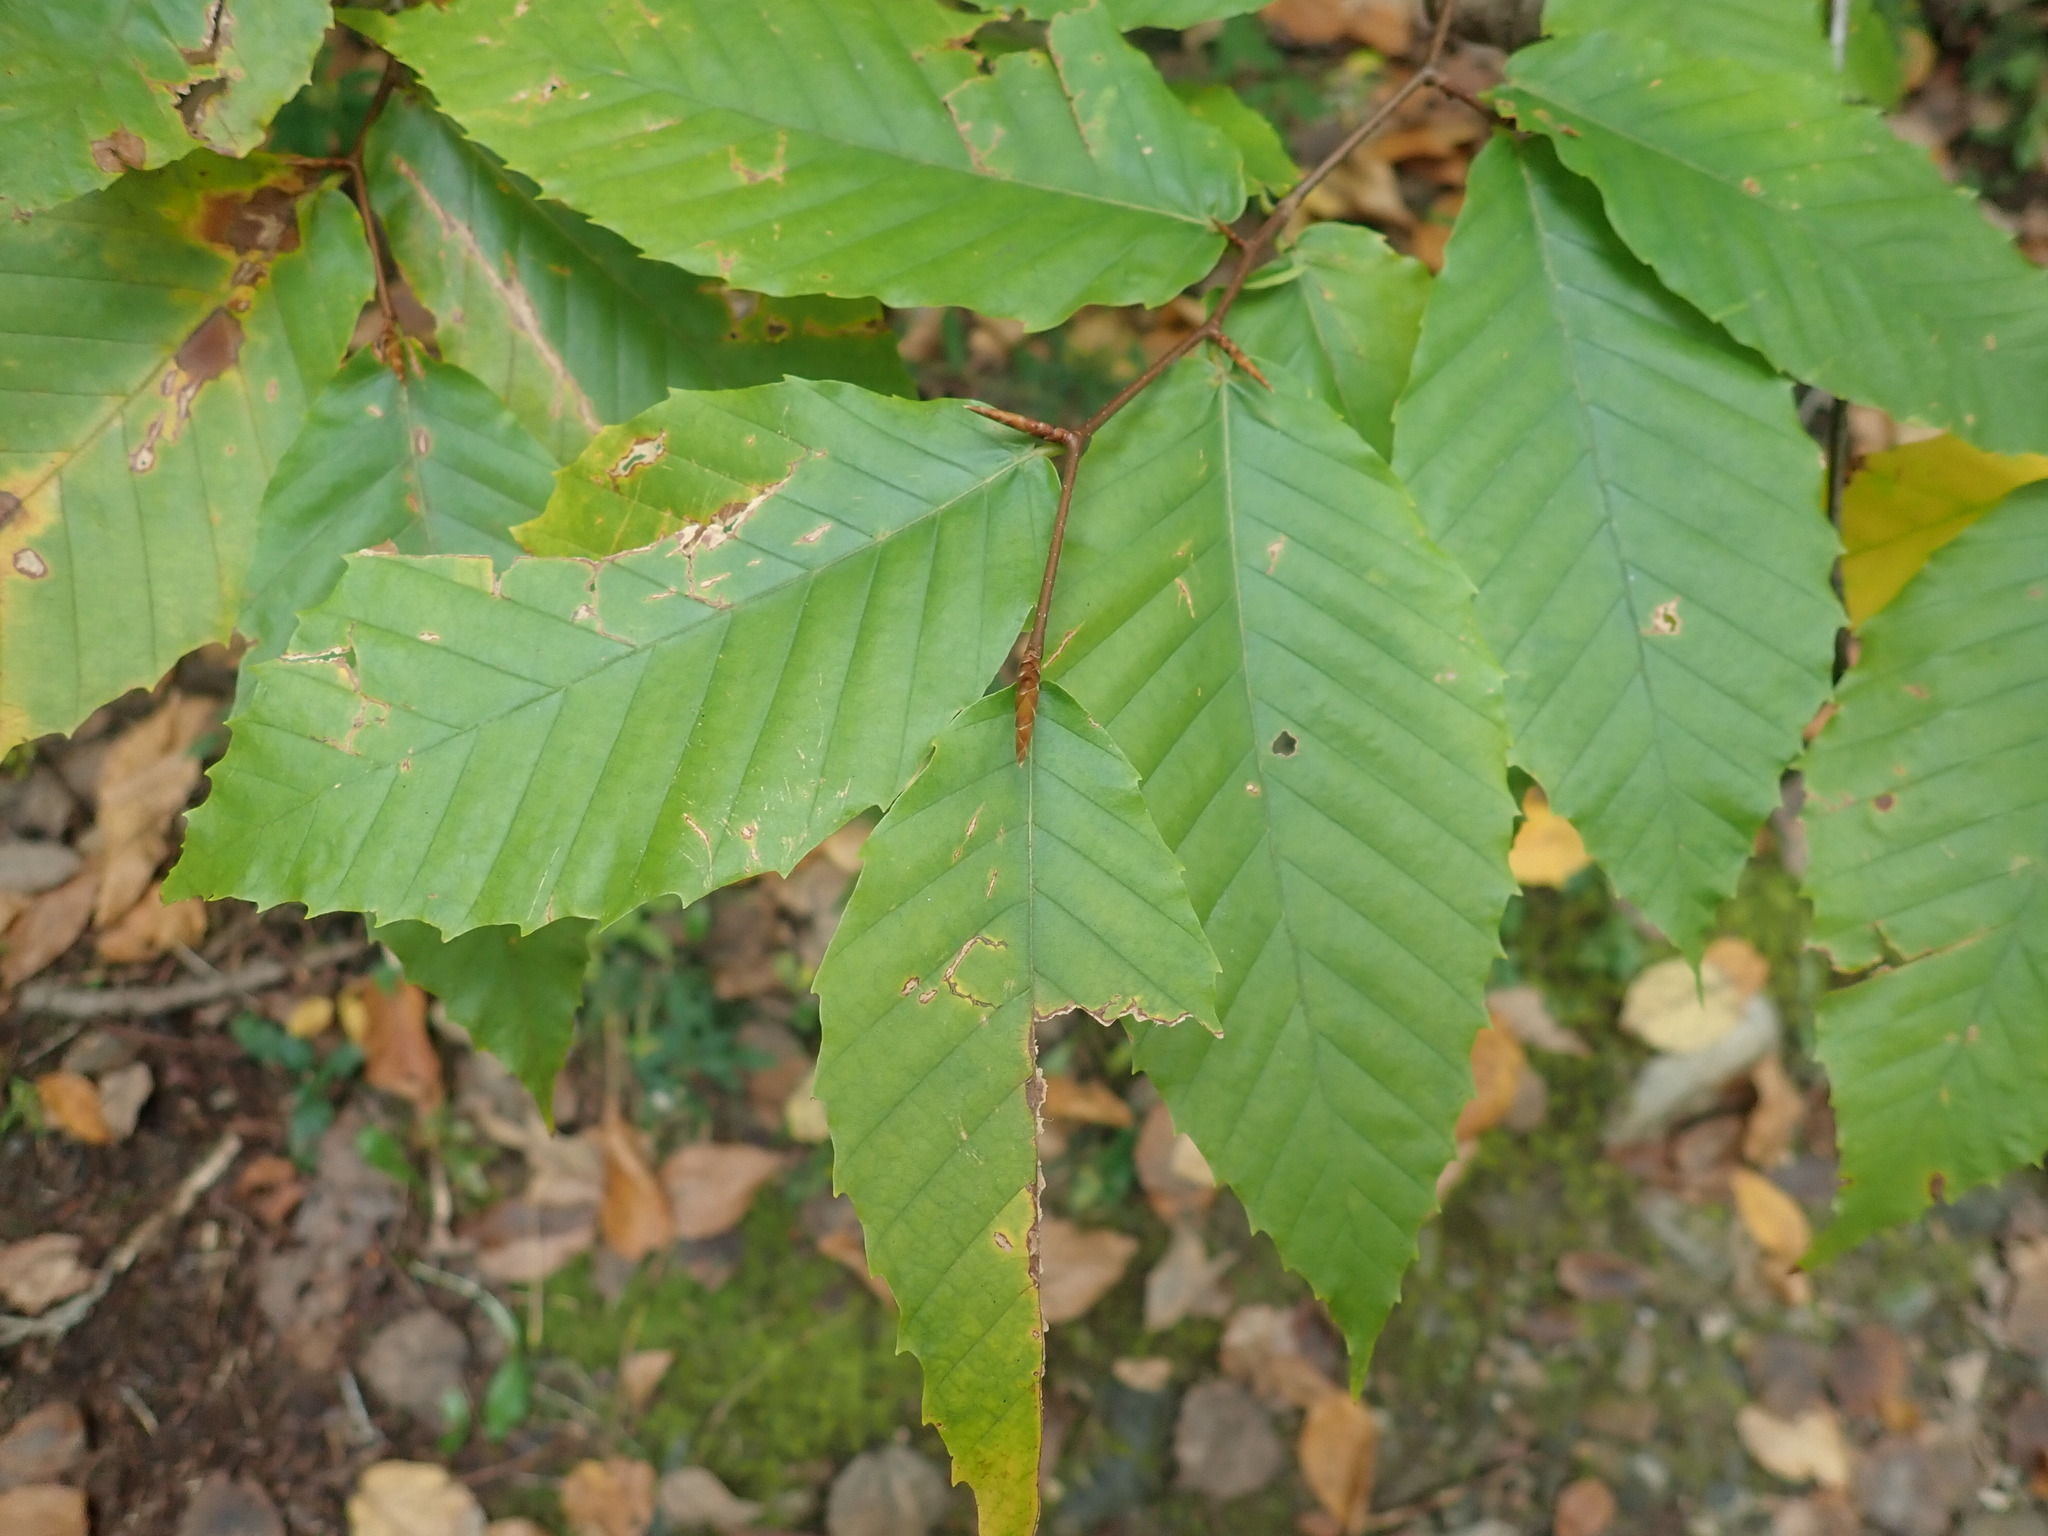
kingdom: Plantae
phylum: Tracheophyta
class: Magnoliopsida
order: Fagales
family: Fagaceae
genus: Fagus
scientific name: Fagus grandifolia
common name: American beech
